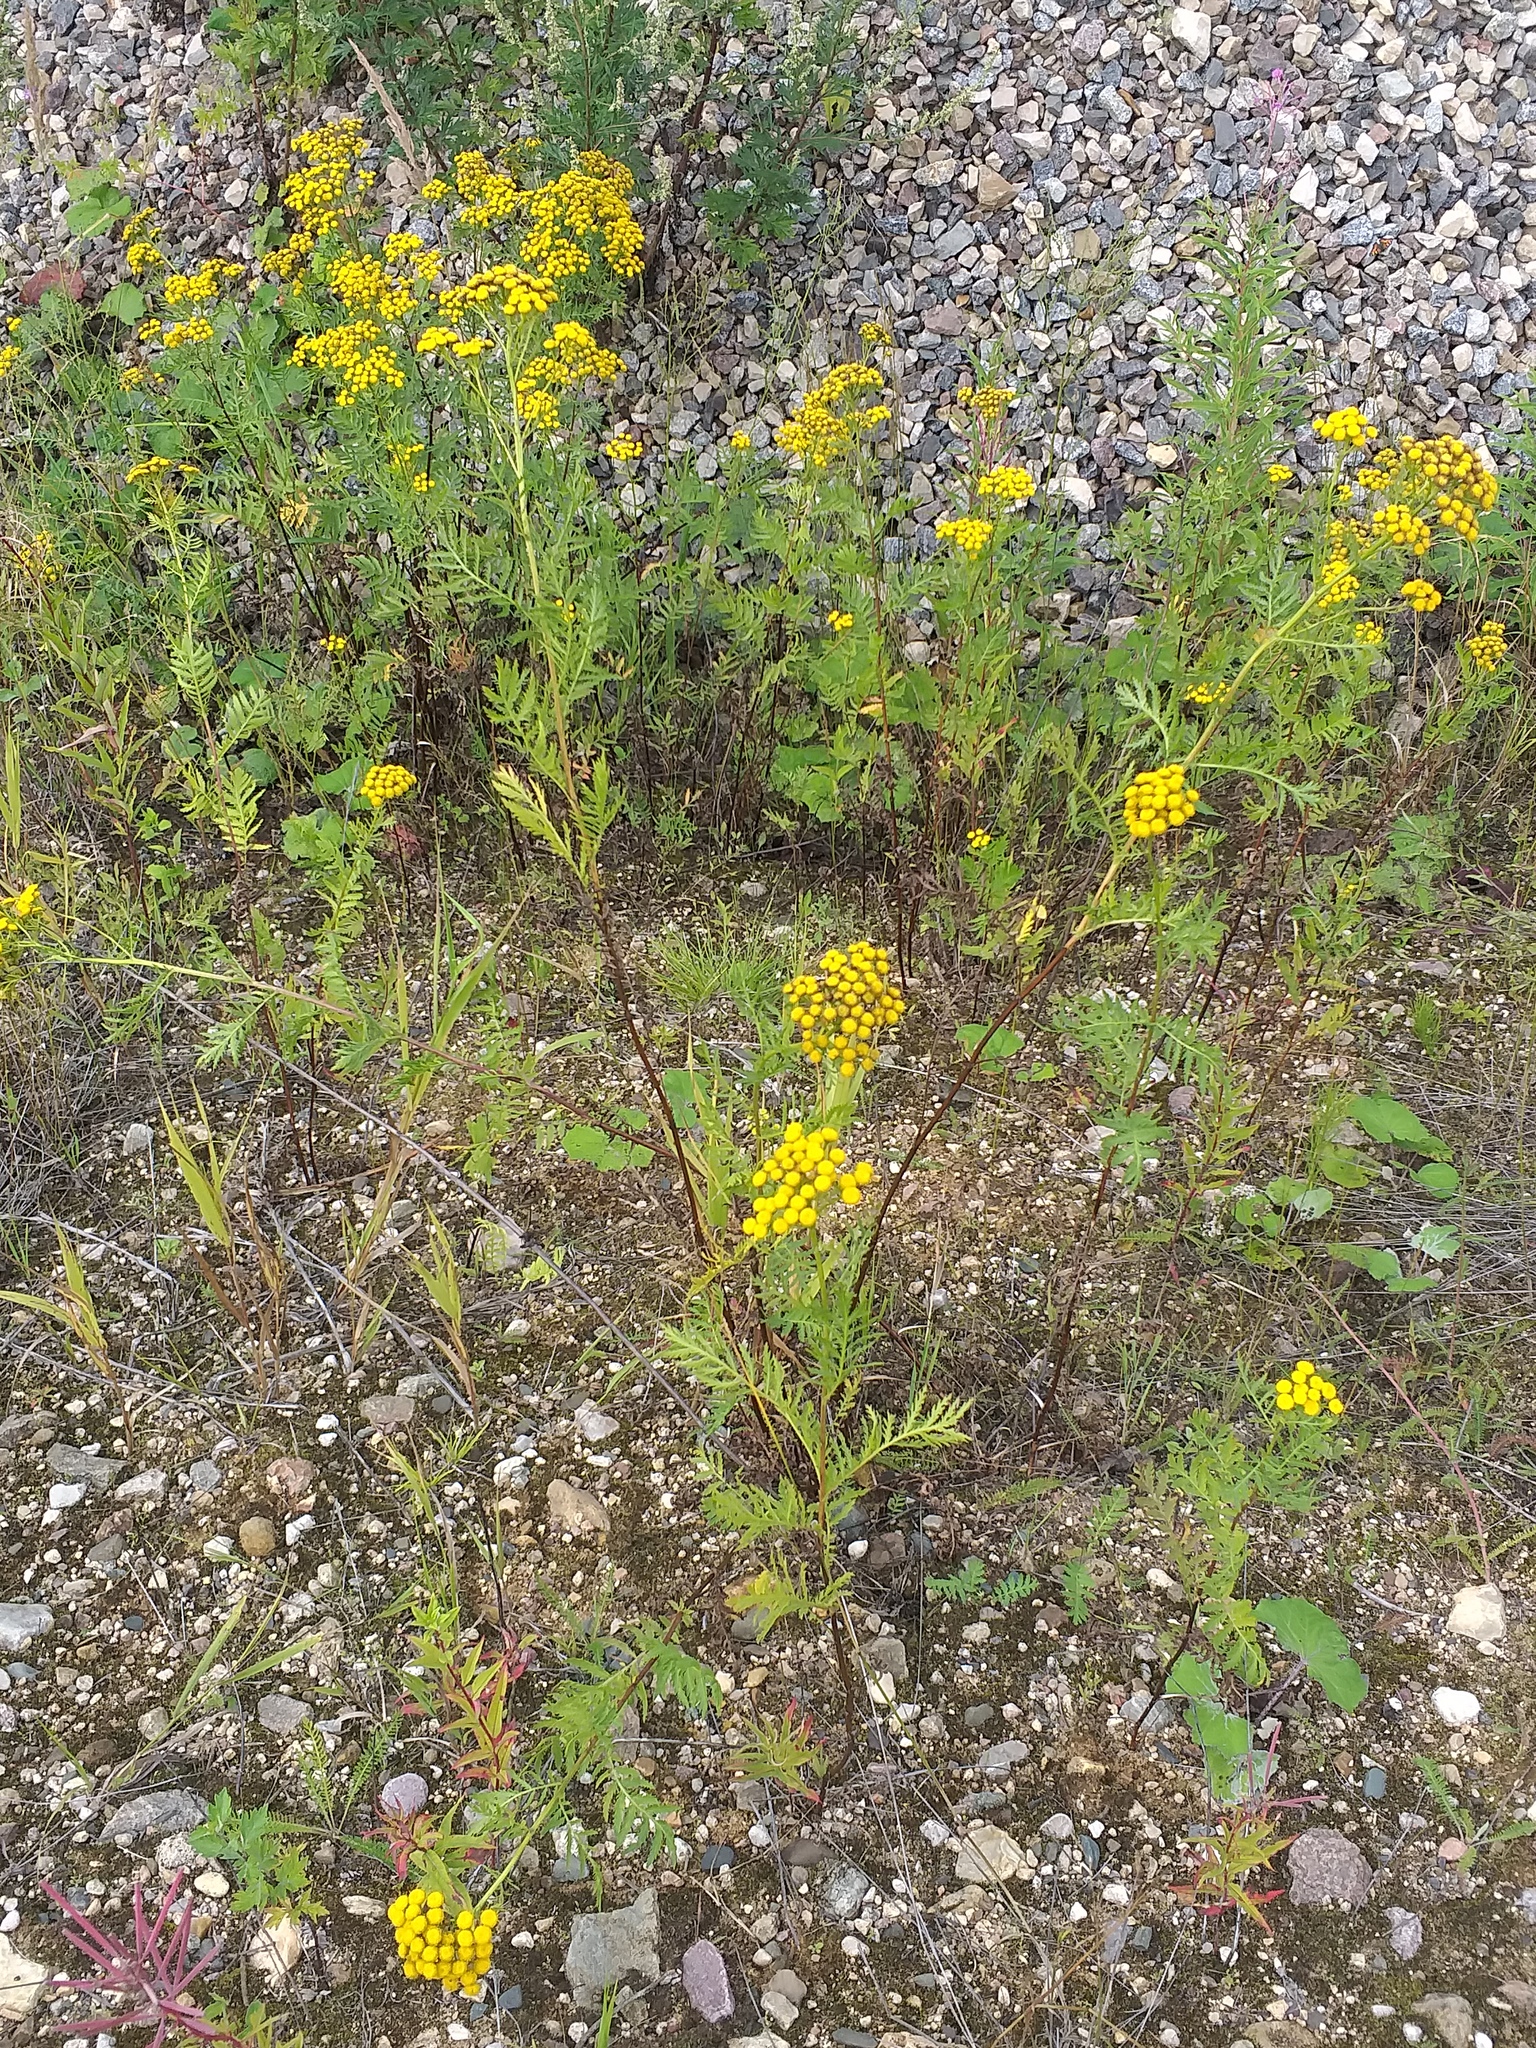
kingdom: Plantae
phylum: Tracheophyta
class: Magnoliopsida
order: Asterales
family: Asteraceae
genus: Tanacetum
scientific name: Tanacetum vulgare
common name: Common tansy
